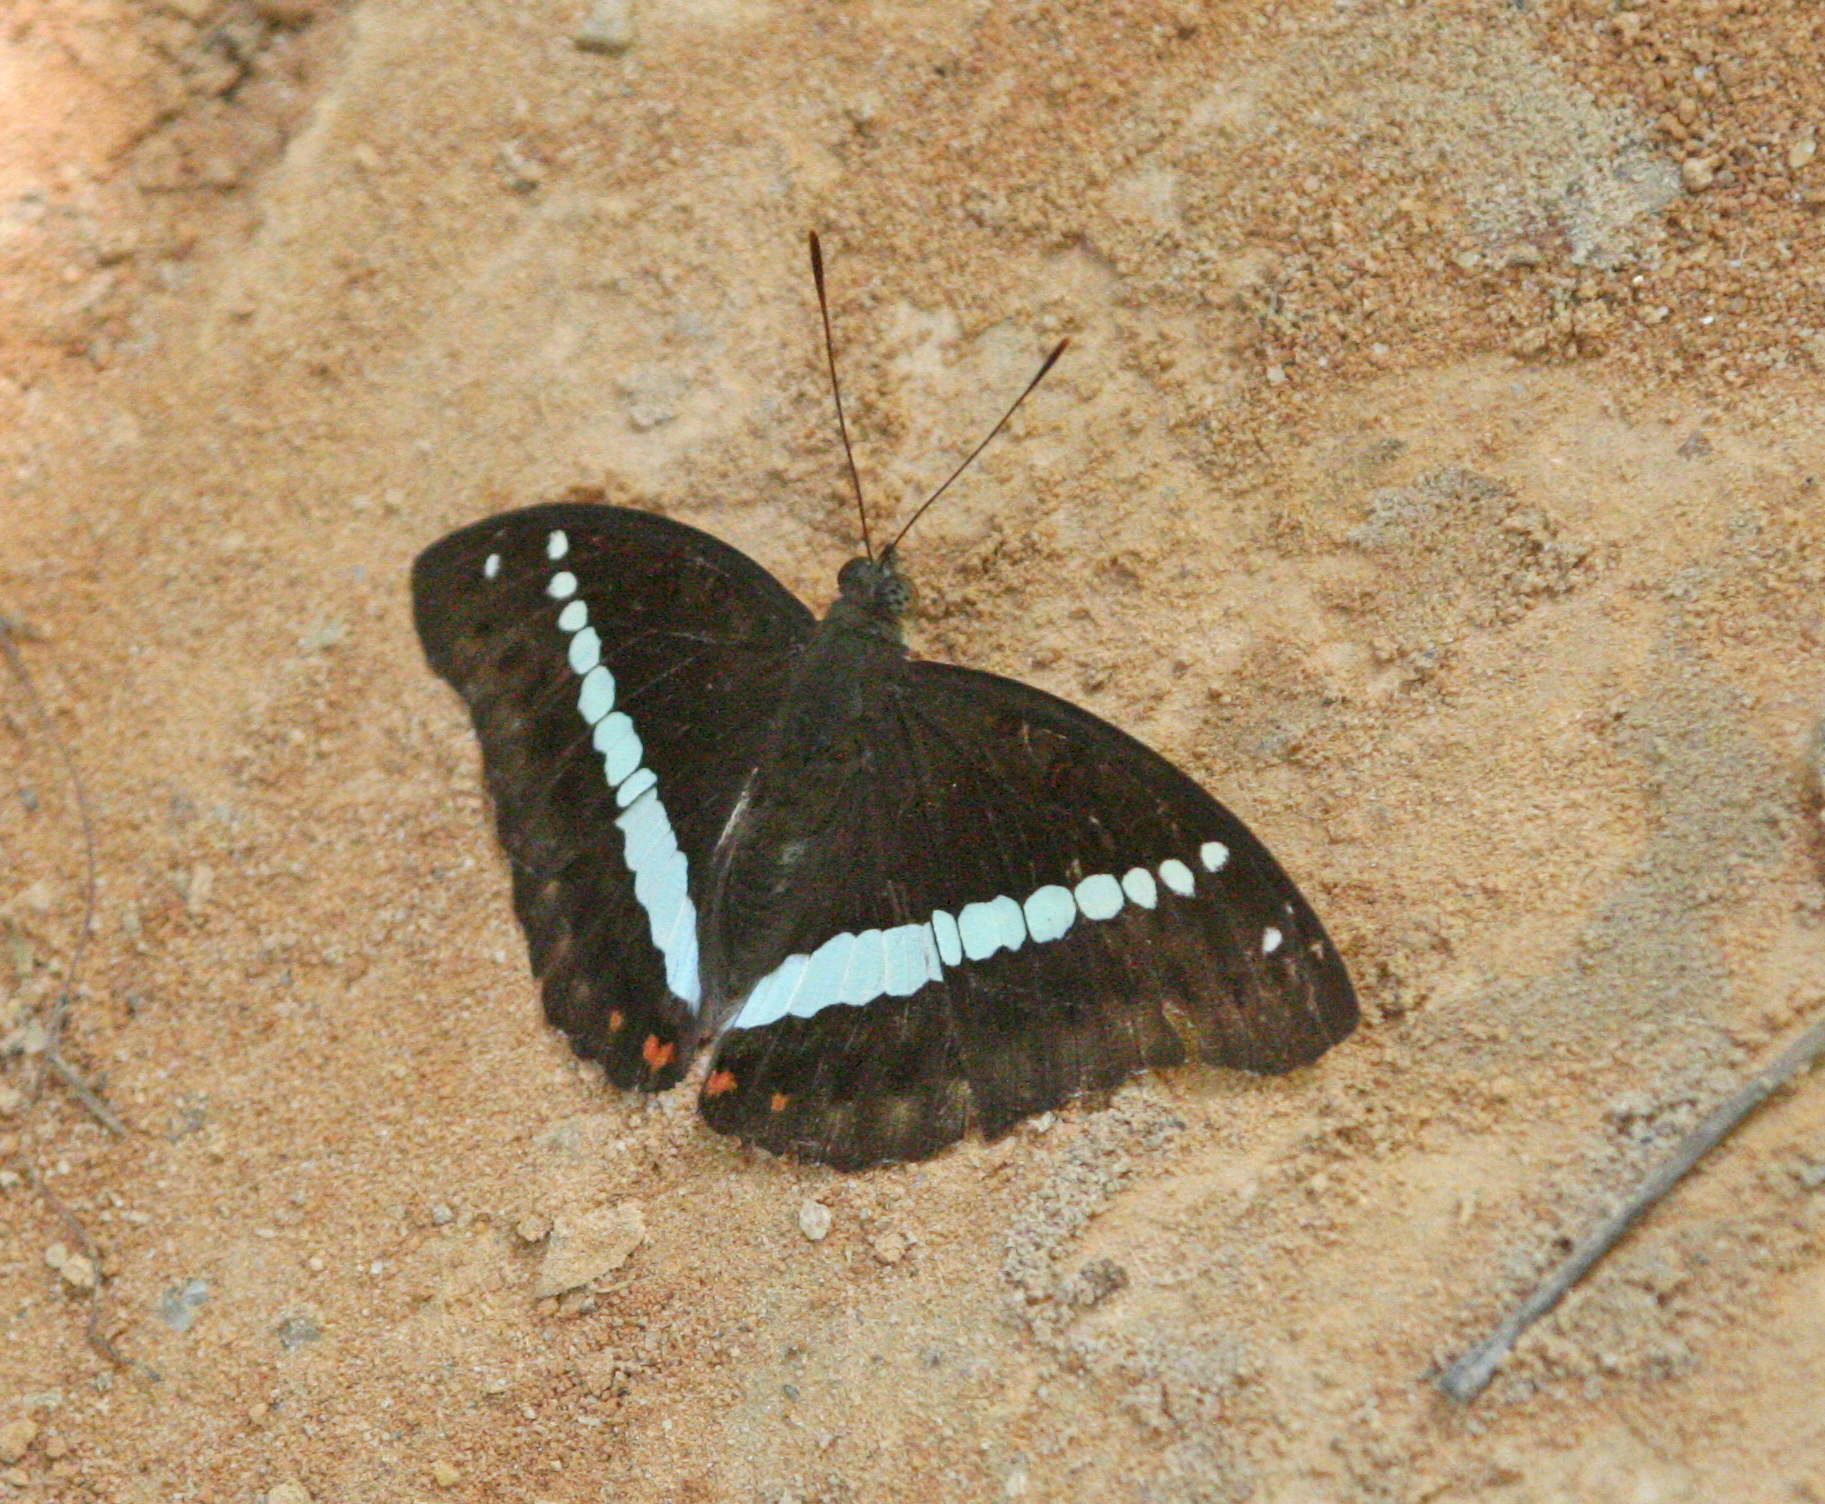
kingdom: Animalia
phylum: Arthropoda
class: Insecta
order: Lepidoptera
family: Nymphalidae
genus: Euthalia
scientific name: Euthalia recta
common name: Redtail marquis
